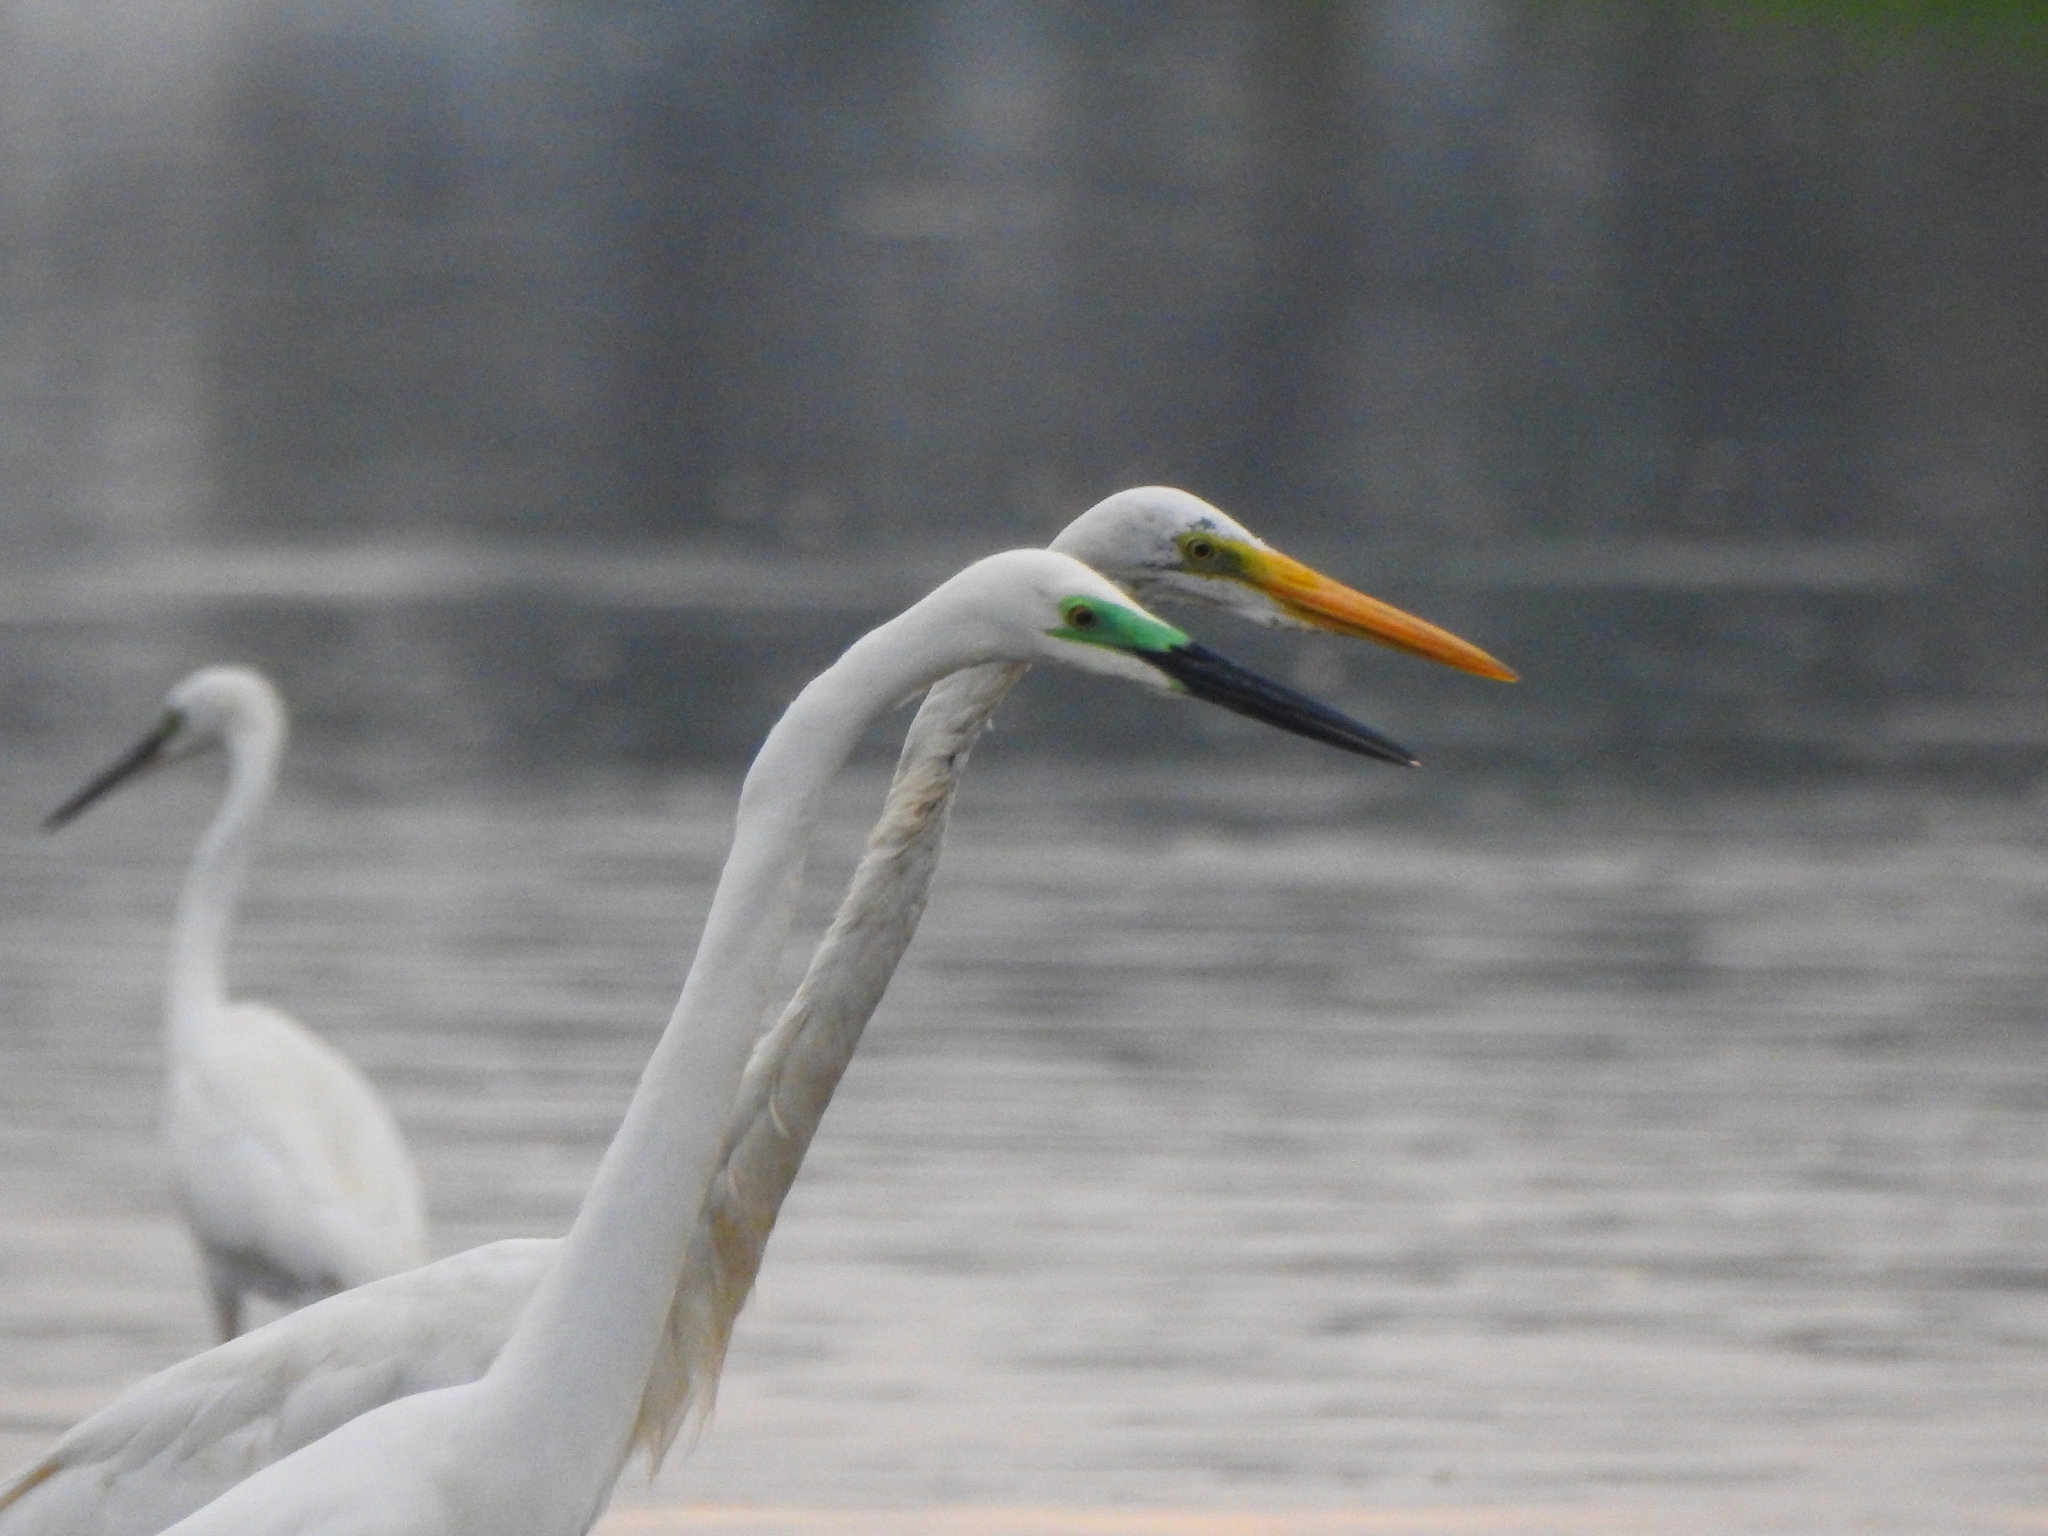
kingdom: Animalia
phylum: Chordata
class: Aves
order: Pelecaniformes
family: Ardeidae
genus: Ardea
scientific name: Ardea alba
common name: Great egret
